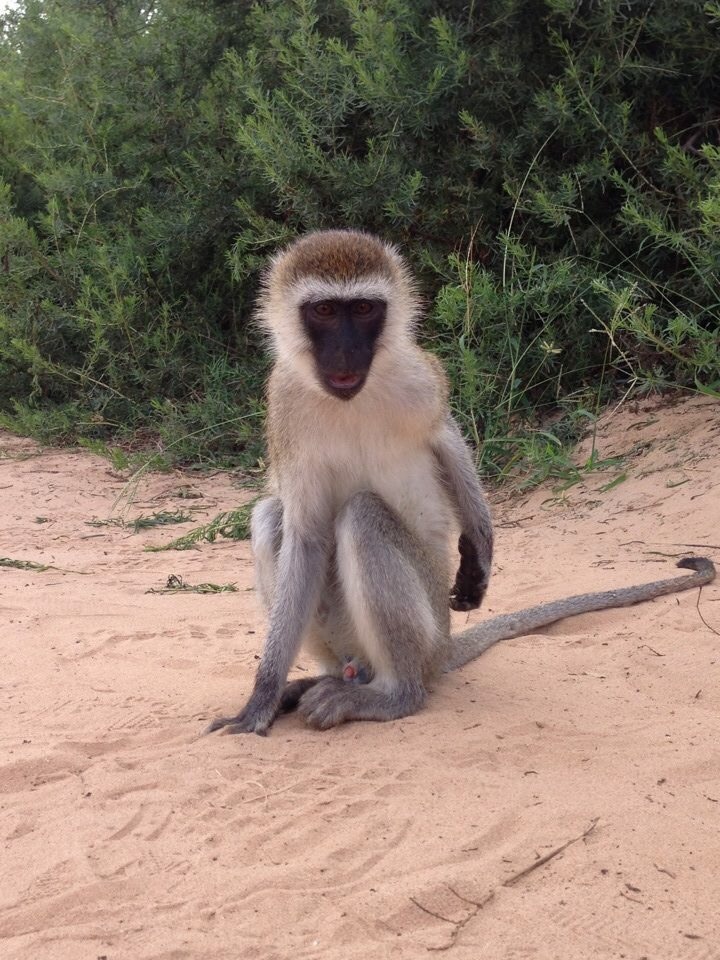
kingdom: Animalia
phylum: Chordata
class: Mammalia
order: Primates
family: Cercopithecidae
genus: Chlorocebus
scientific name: Chlorocebus pygerythrus
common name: Vervet monkey
